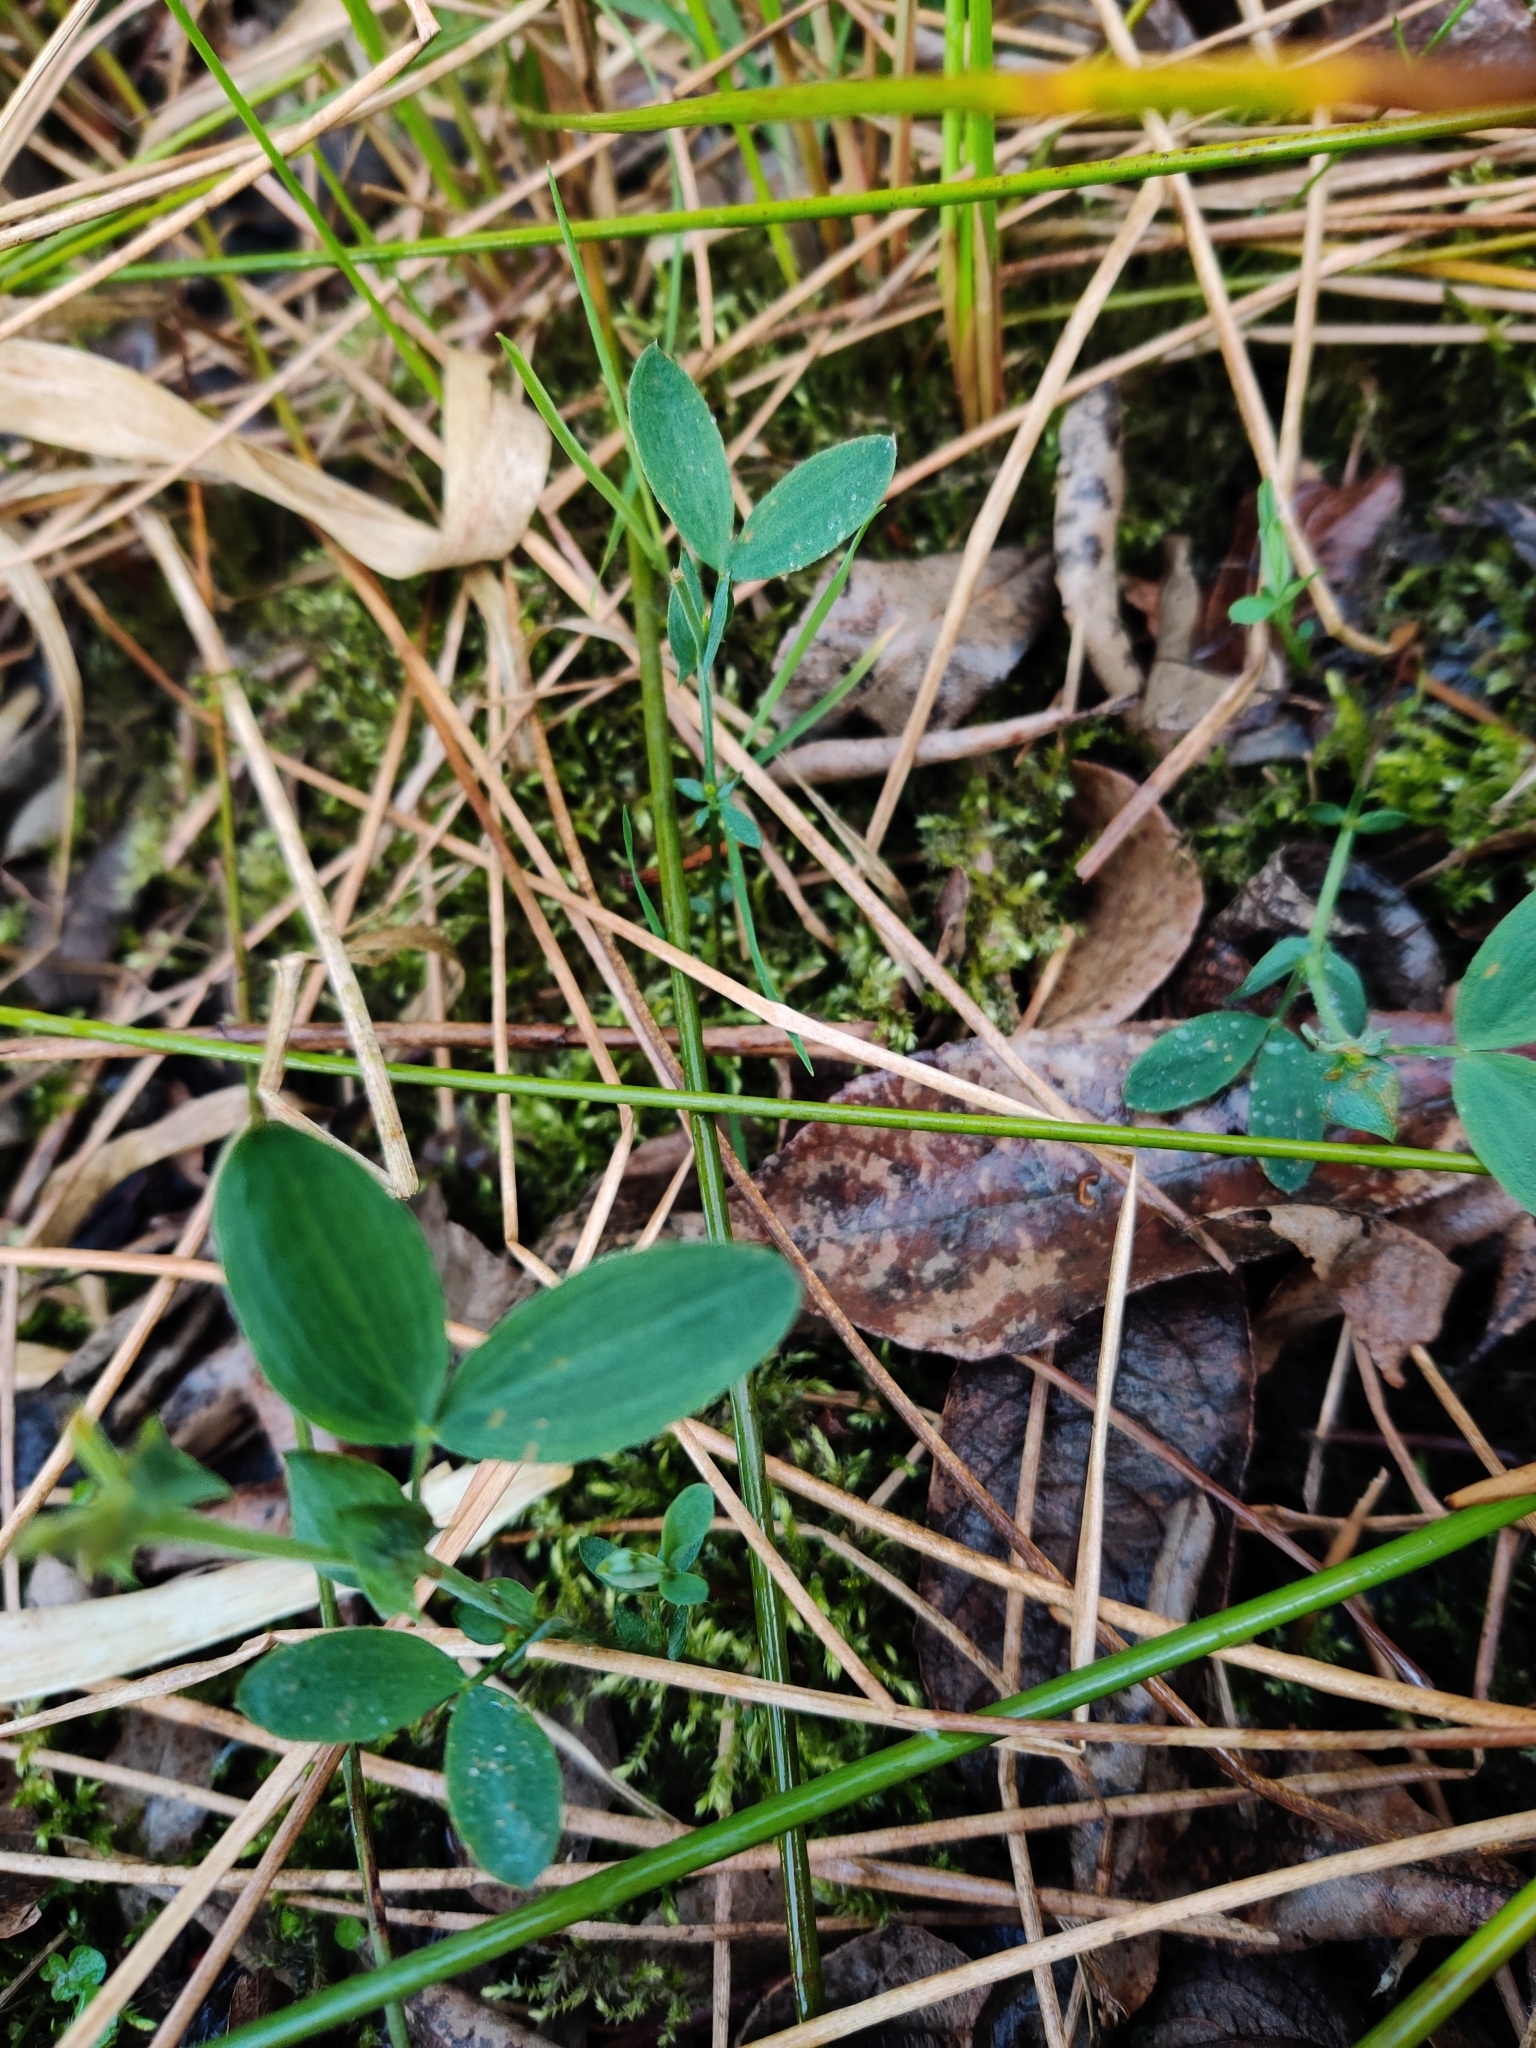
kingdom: Plantae
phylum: Tracheophyta
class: Magnoliopsida
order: Fabales
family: Fabaceae
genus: Lathyrus
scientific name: Lathyrus pratensis
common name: Meadow vetchling
